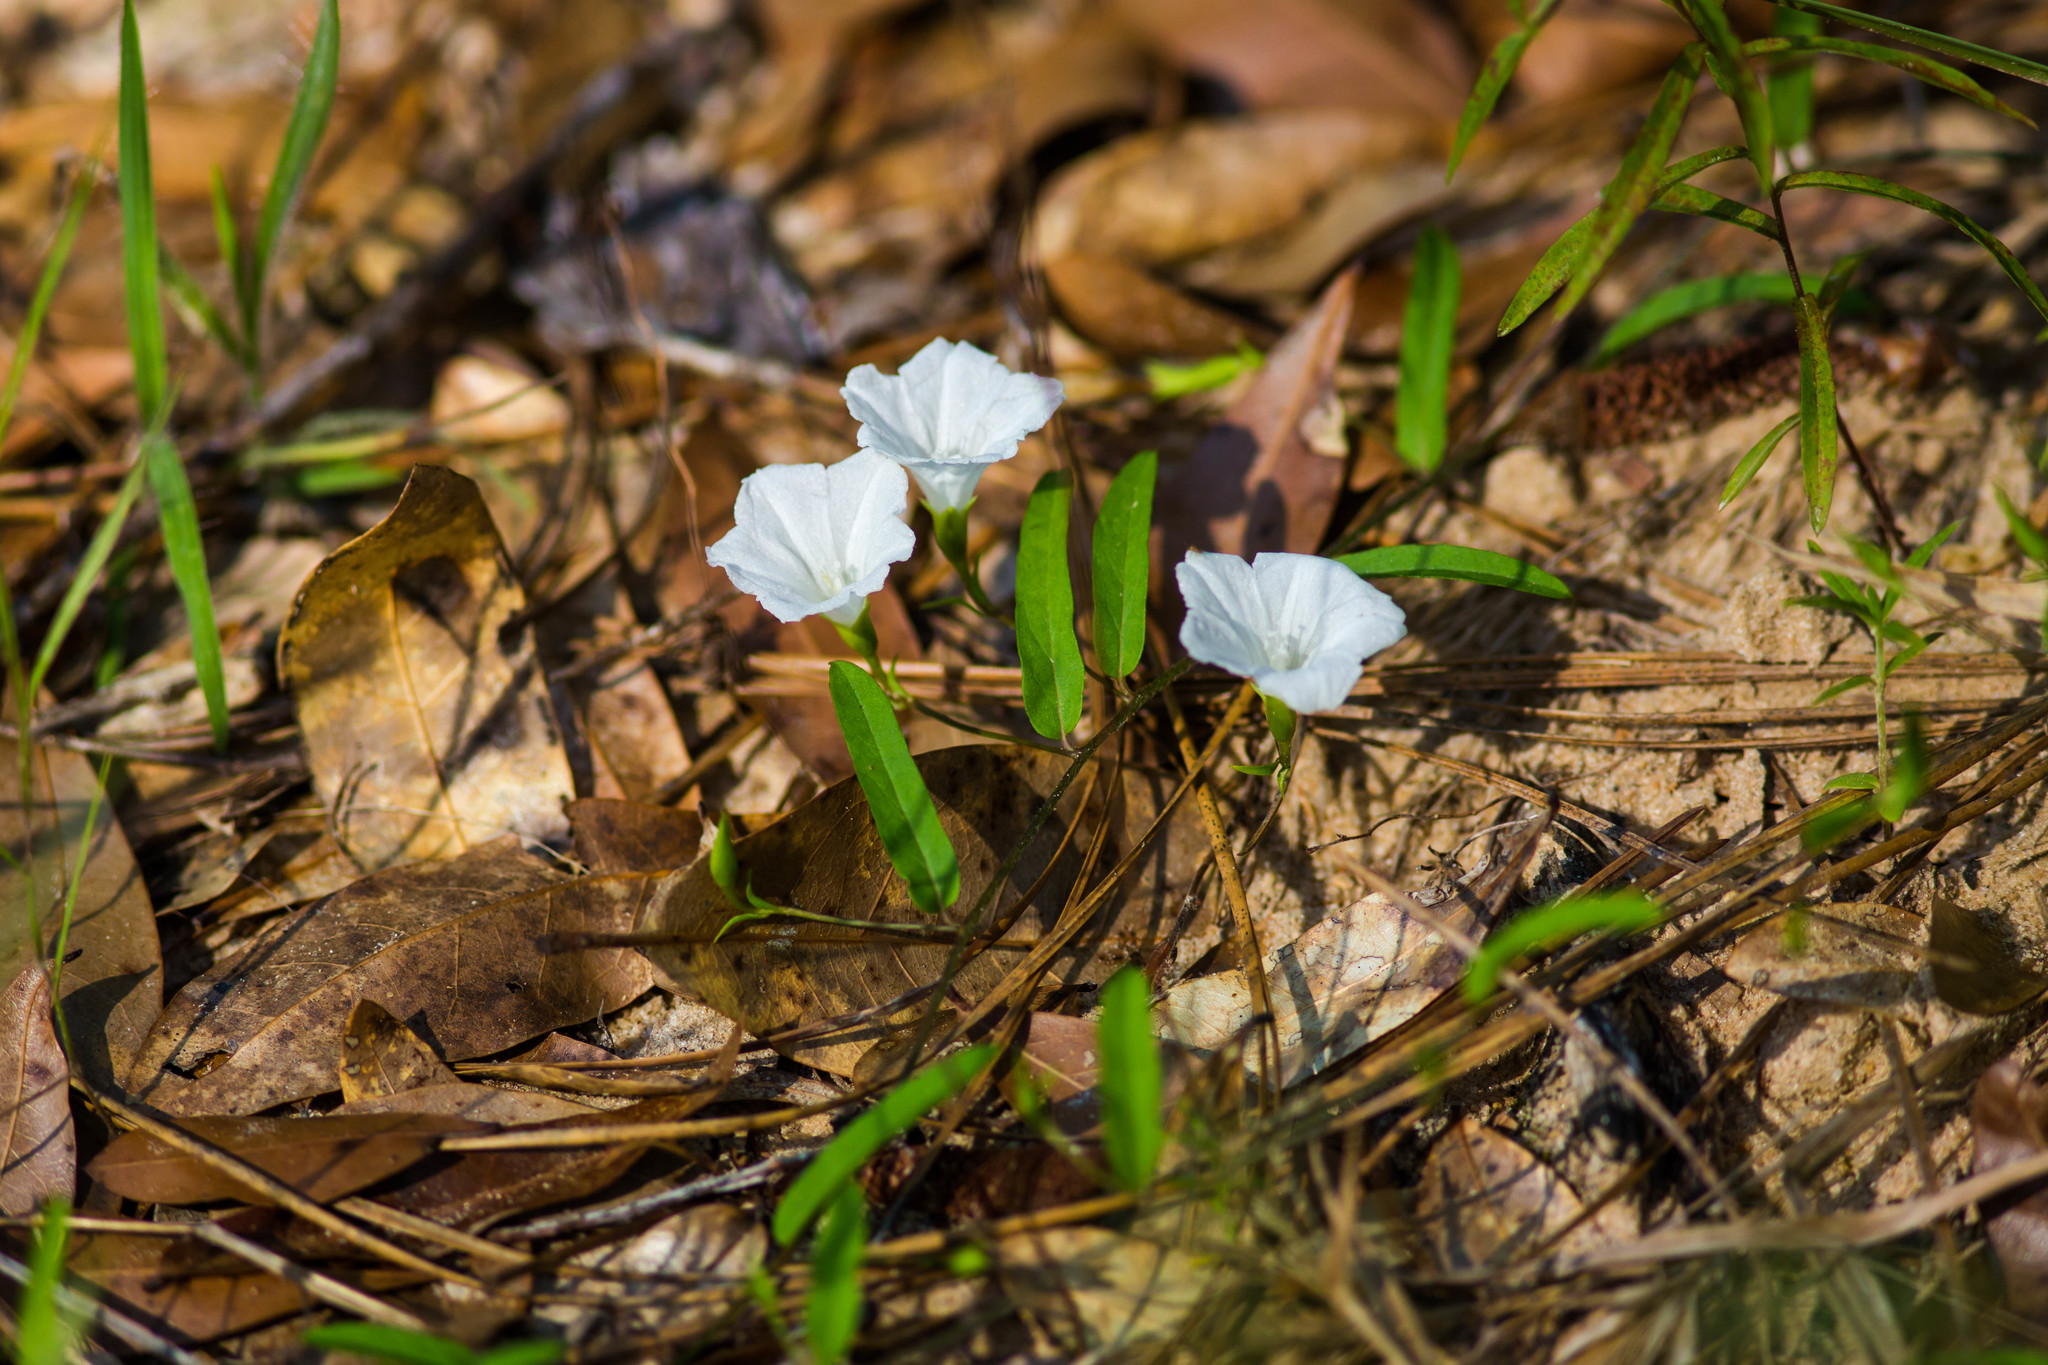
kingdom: Plantae
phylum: Tracheophyta
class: Magnoliopsida
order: Solanales
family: Convolvulaceae
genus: Stylisma
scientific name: Stylisma patens
